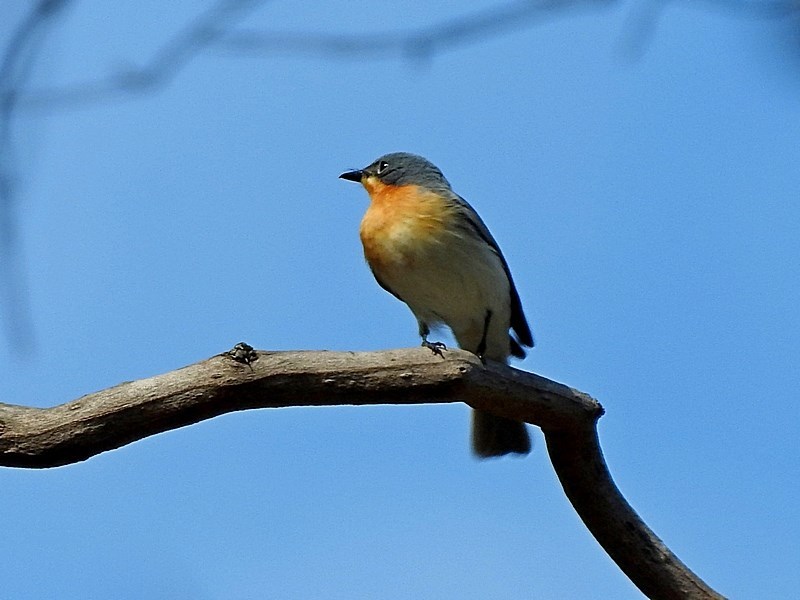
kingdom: Animalia
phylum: Chordata
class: Aves
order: Passeriformes
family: Monarchidae
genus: Myiagra
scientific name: Myiagra rubecula
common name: Leaden flycatcher
